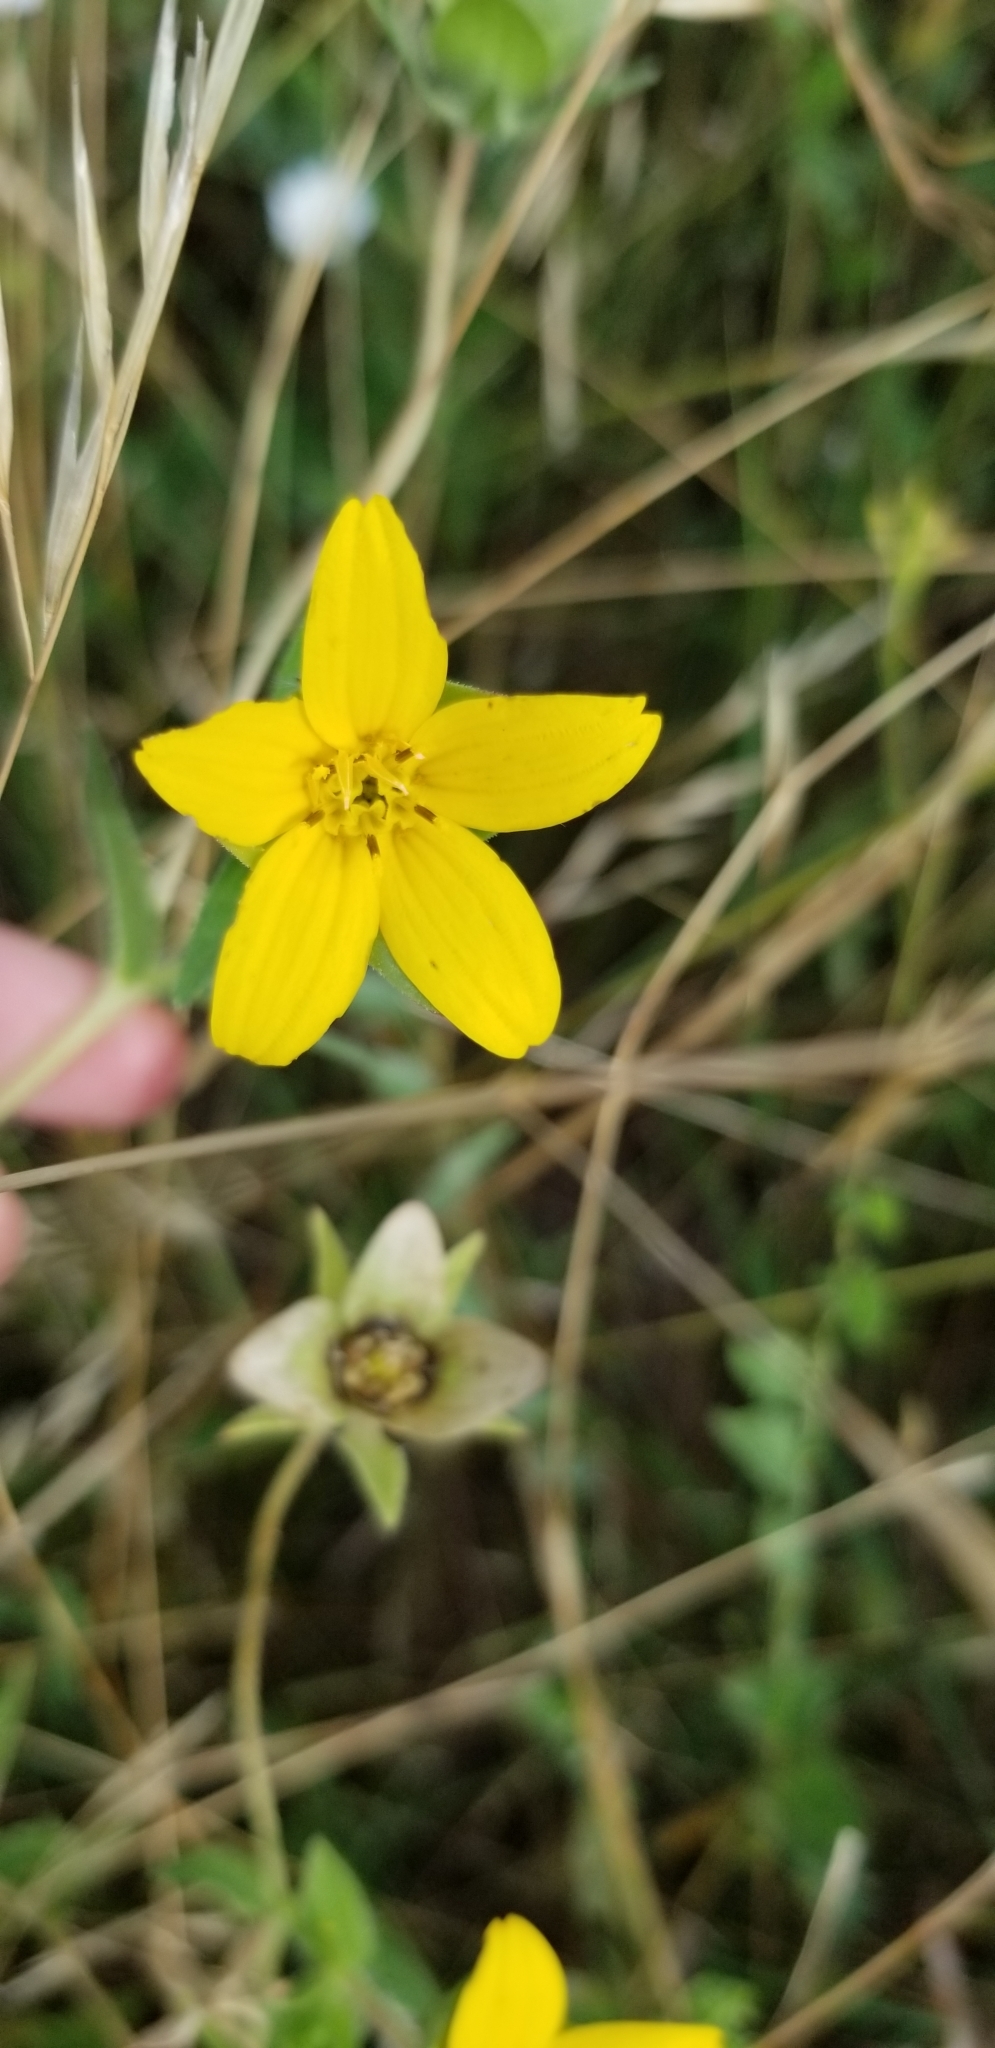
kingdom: Plantae
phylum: Tracheophyta
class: Magnoliopsida
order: Asterales
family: Asteraceae
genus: Lindheimera
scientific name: Lindheimera texana
